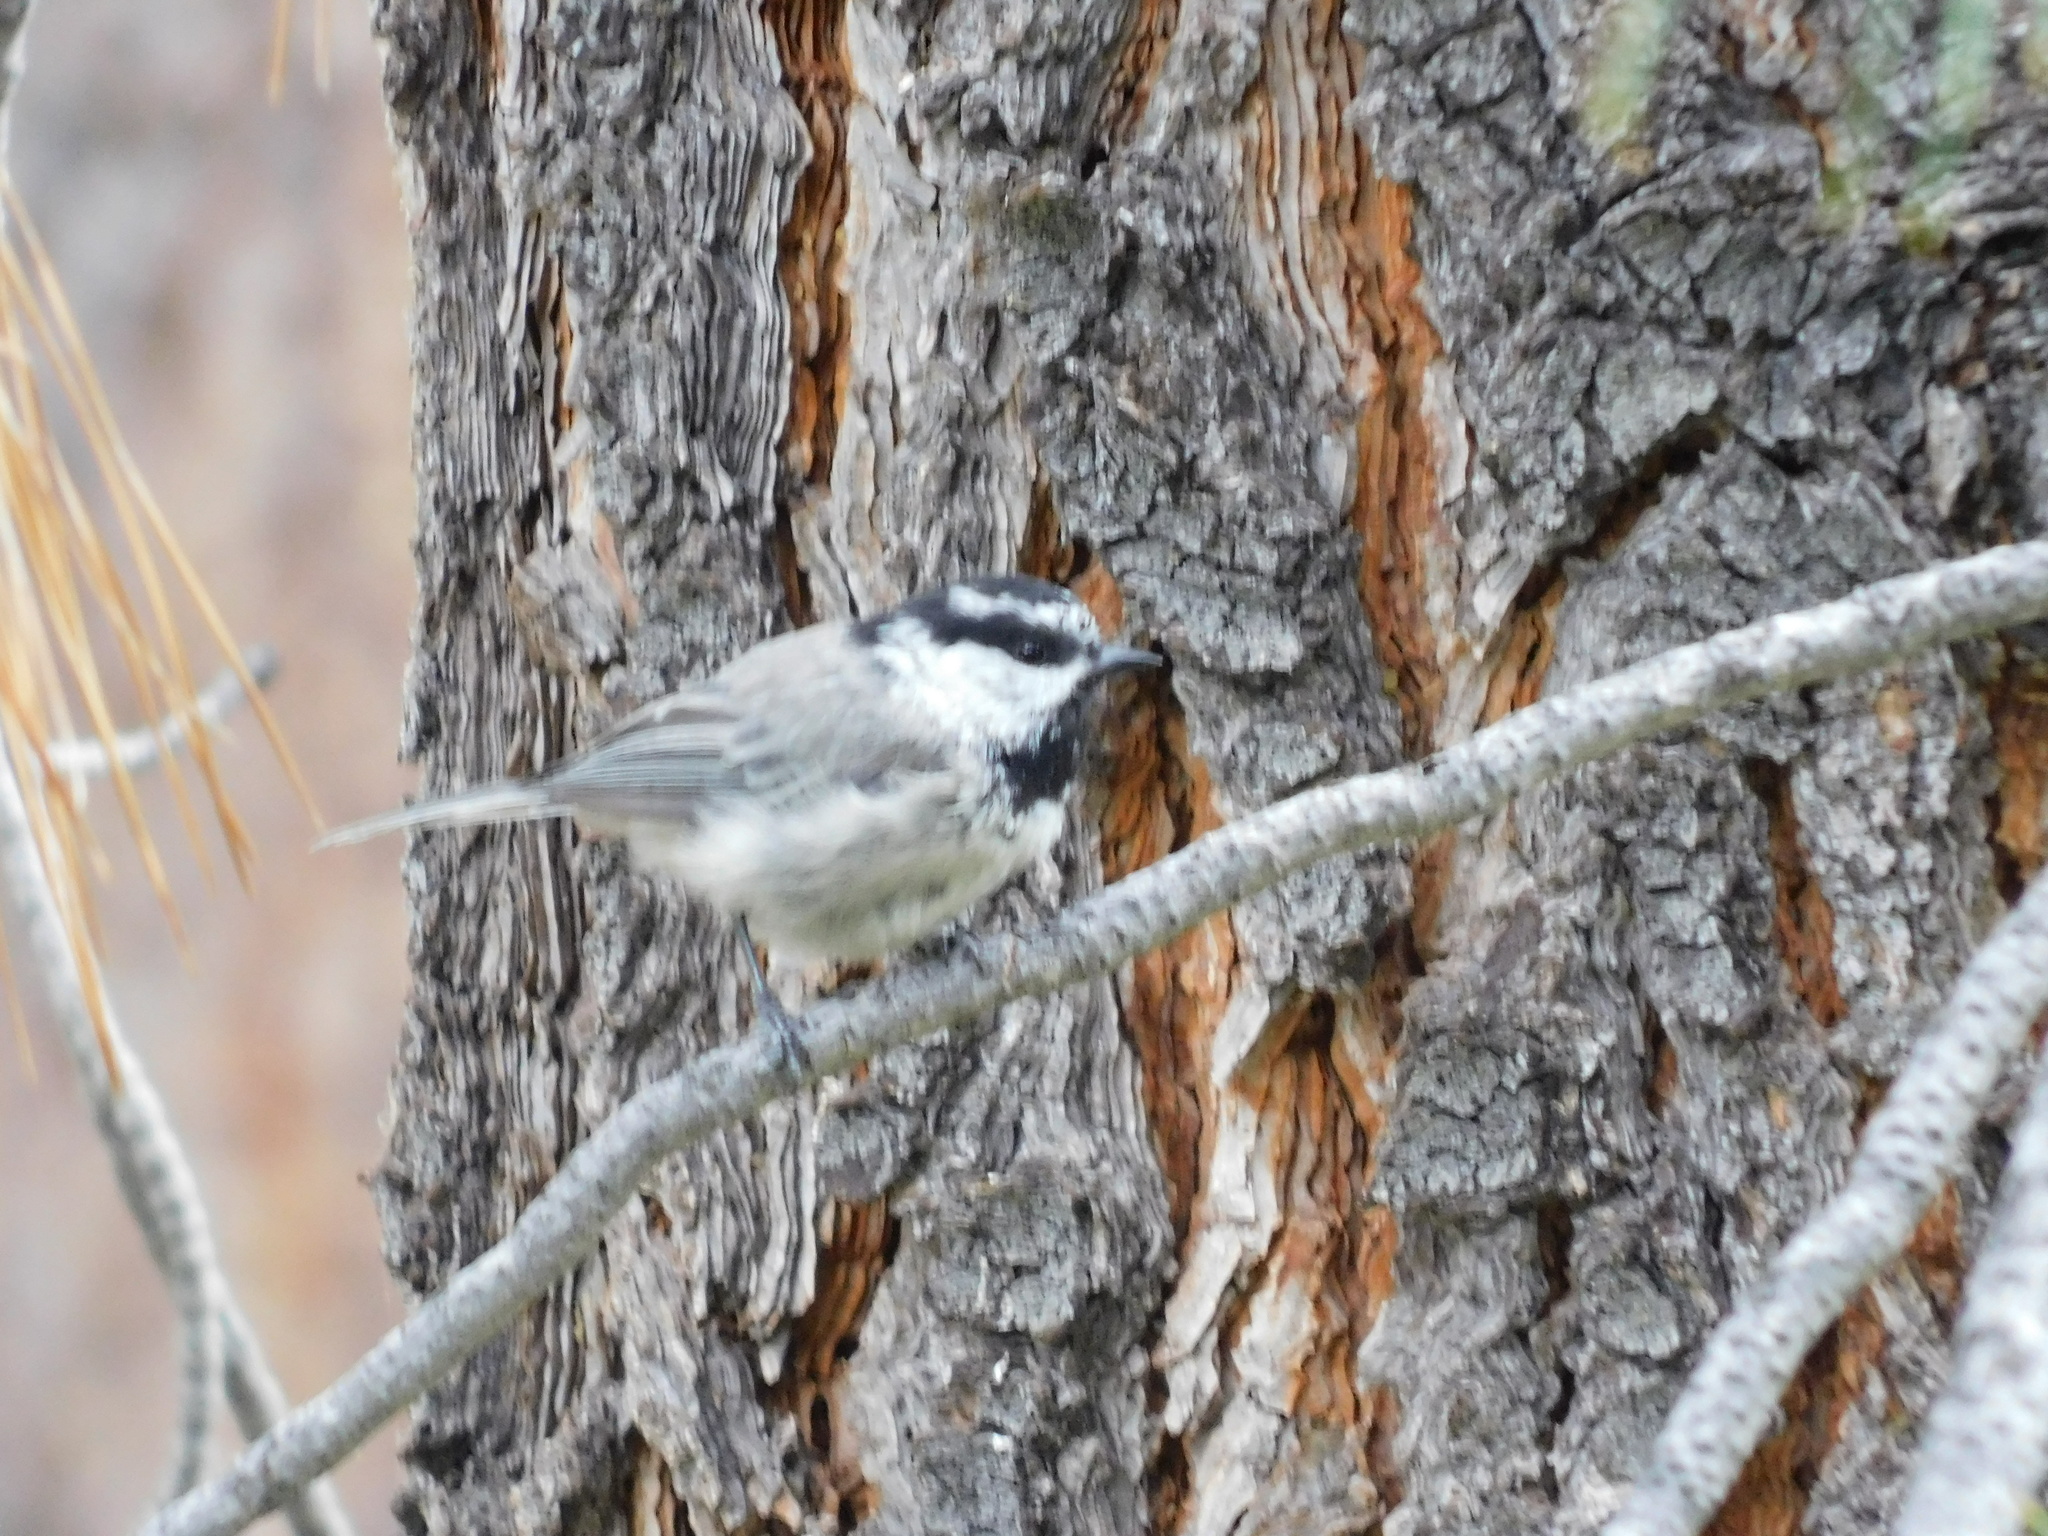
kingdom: Animalia
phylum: Chordata
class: Aves
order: Passeriformes
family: Paridae
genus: Poecile
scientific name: Poecile gambeli
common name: Mountain chickadee
